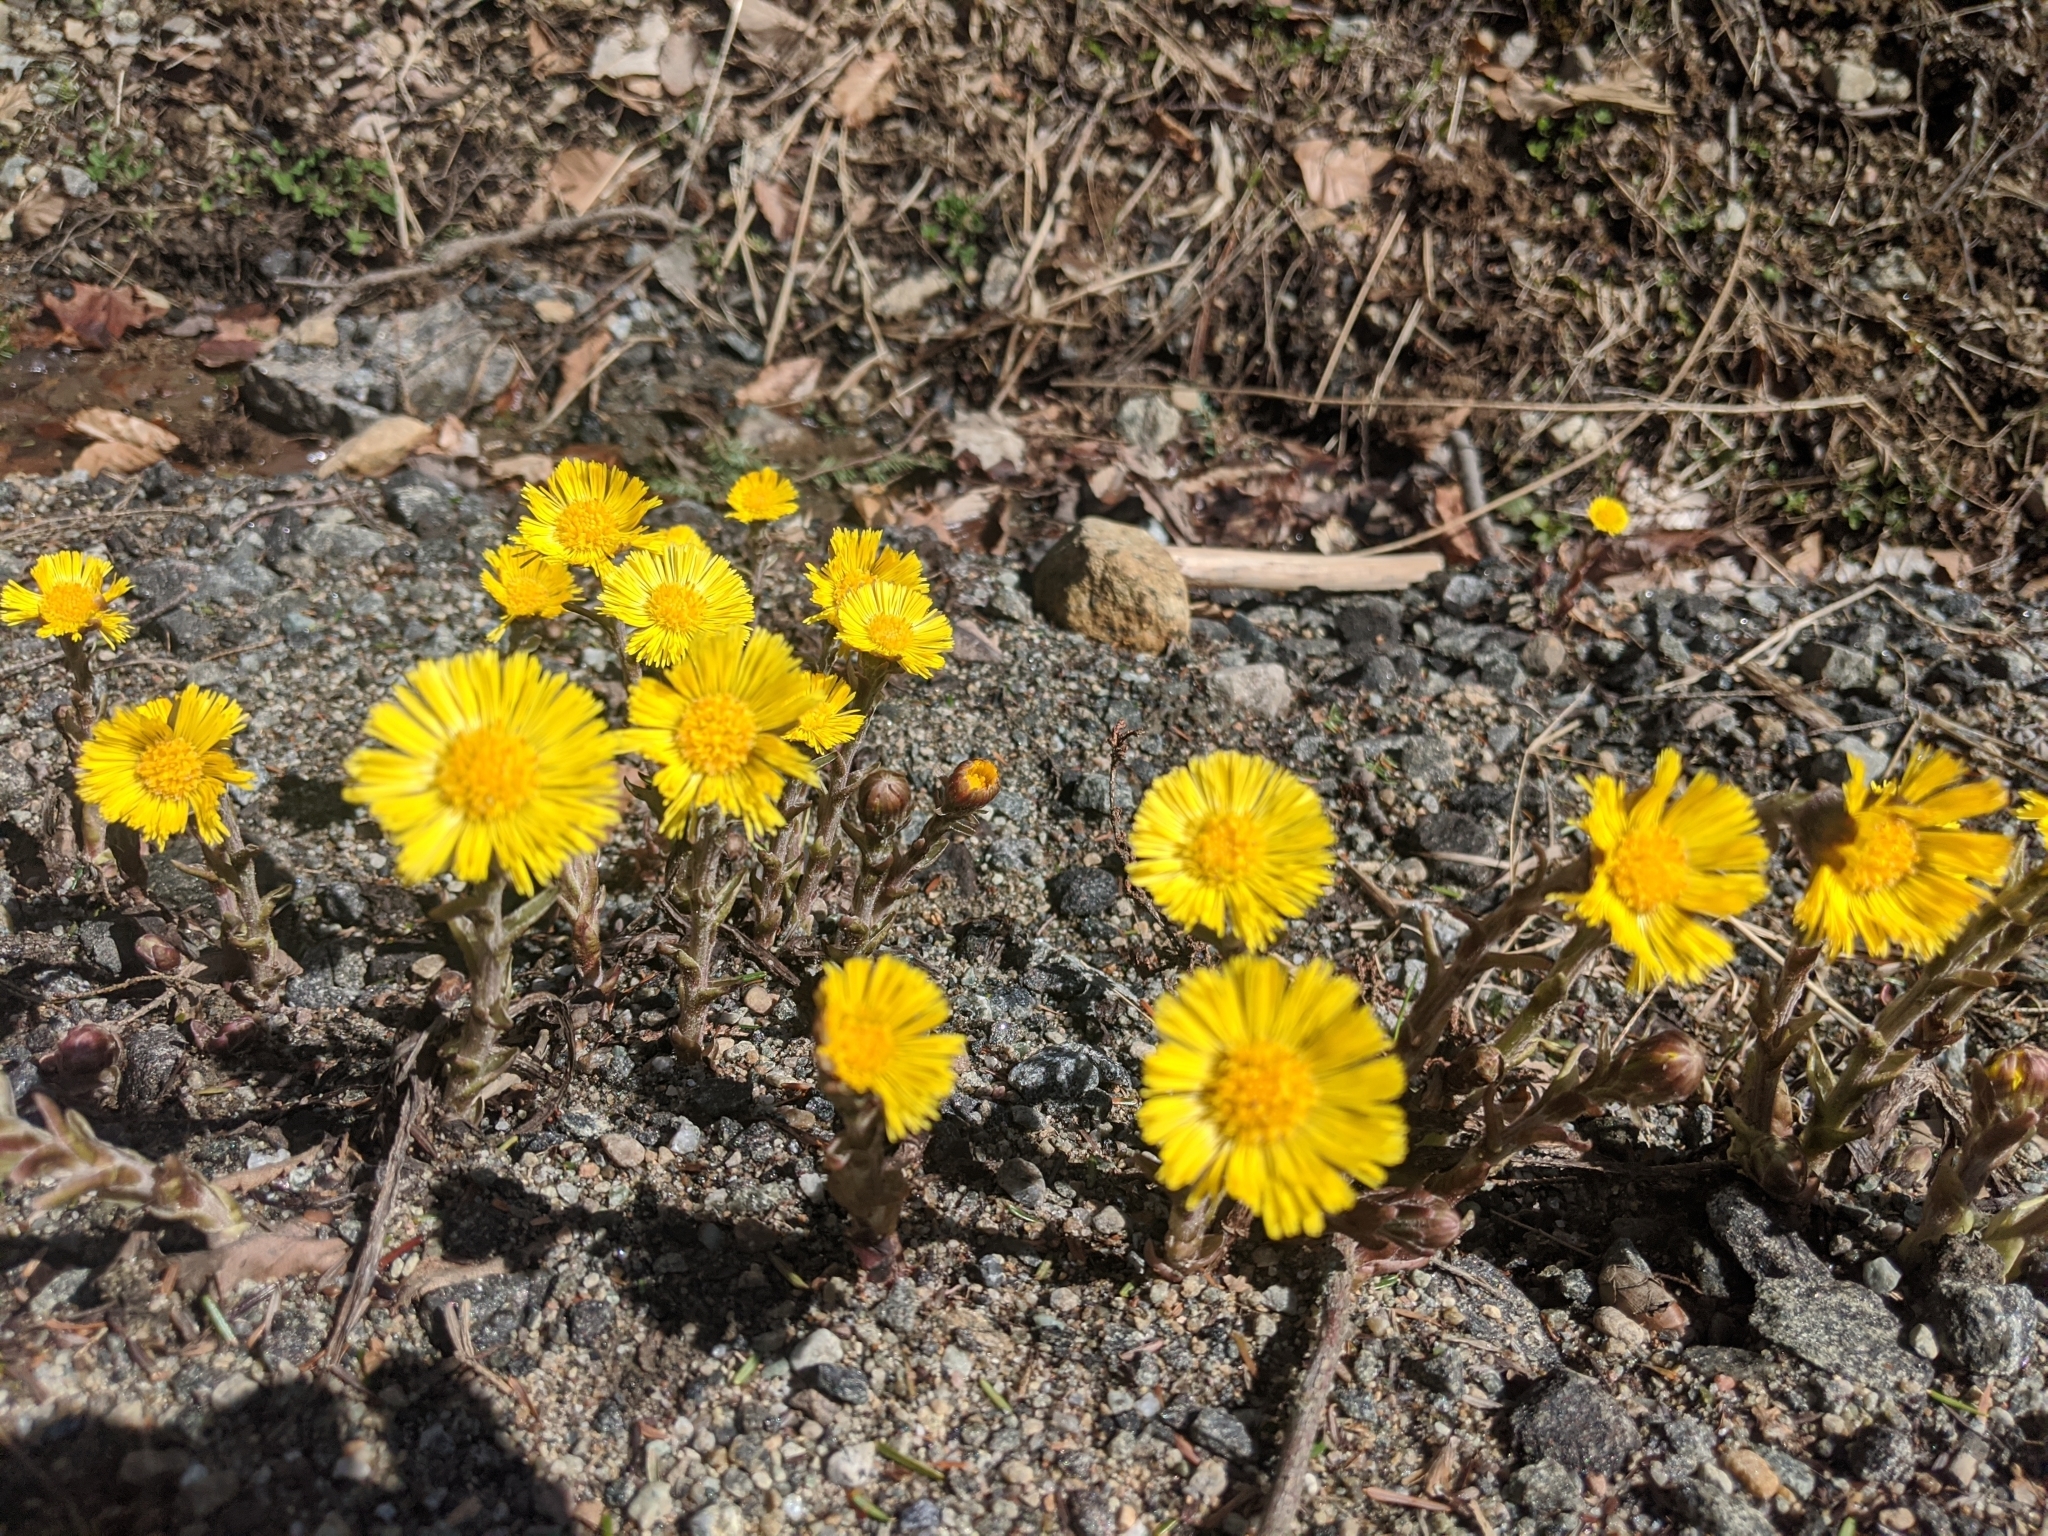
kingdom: Plantae
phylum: Tracheophyta
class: Magnoliopsida
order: Asterales
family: Asteraceae
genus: Tussilago
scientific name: Tussilago farfara
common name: Coltsfoot
